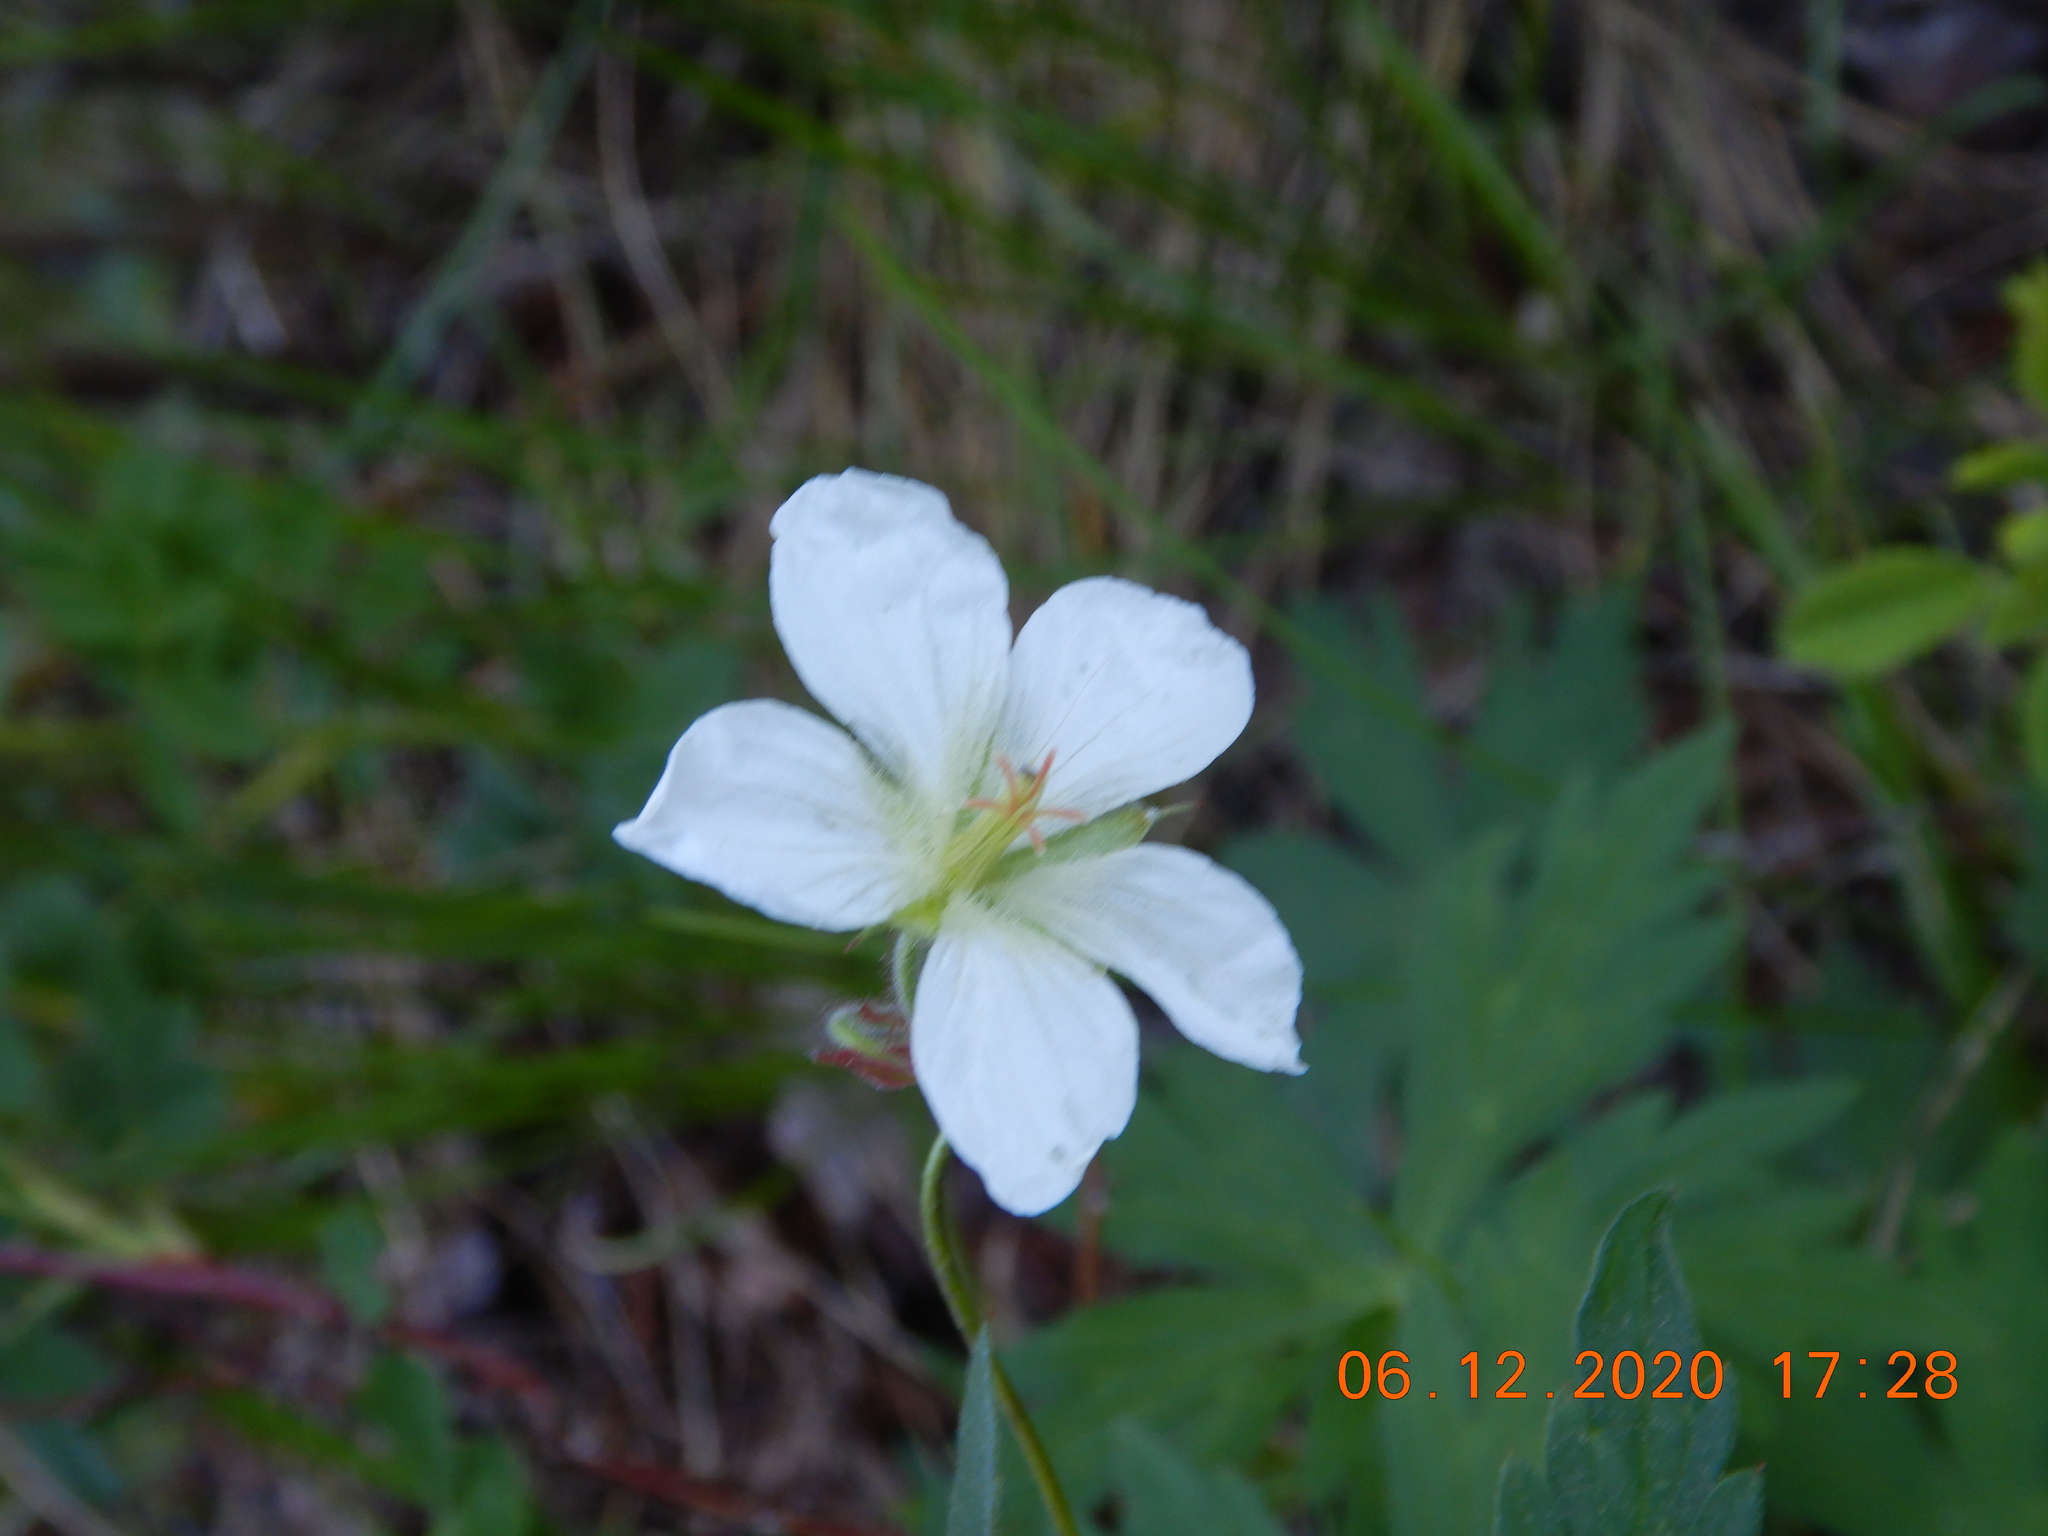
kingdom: Plantae
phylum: Tracheophyta
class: Magnoliopsida
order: Geraniales
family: Geraniaceae
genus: Geranium
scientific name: Geranium richardsonii
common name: Richardson's crane's-bill
